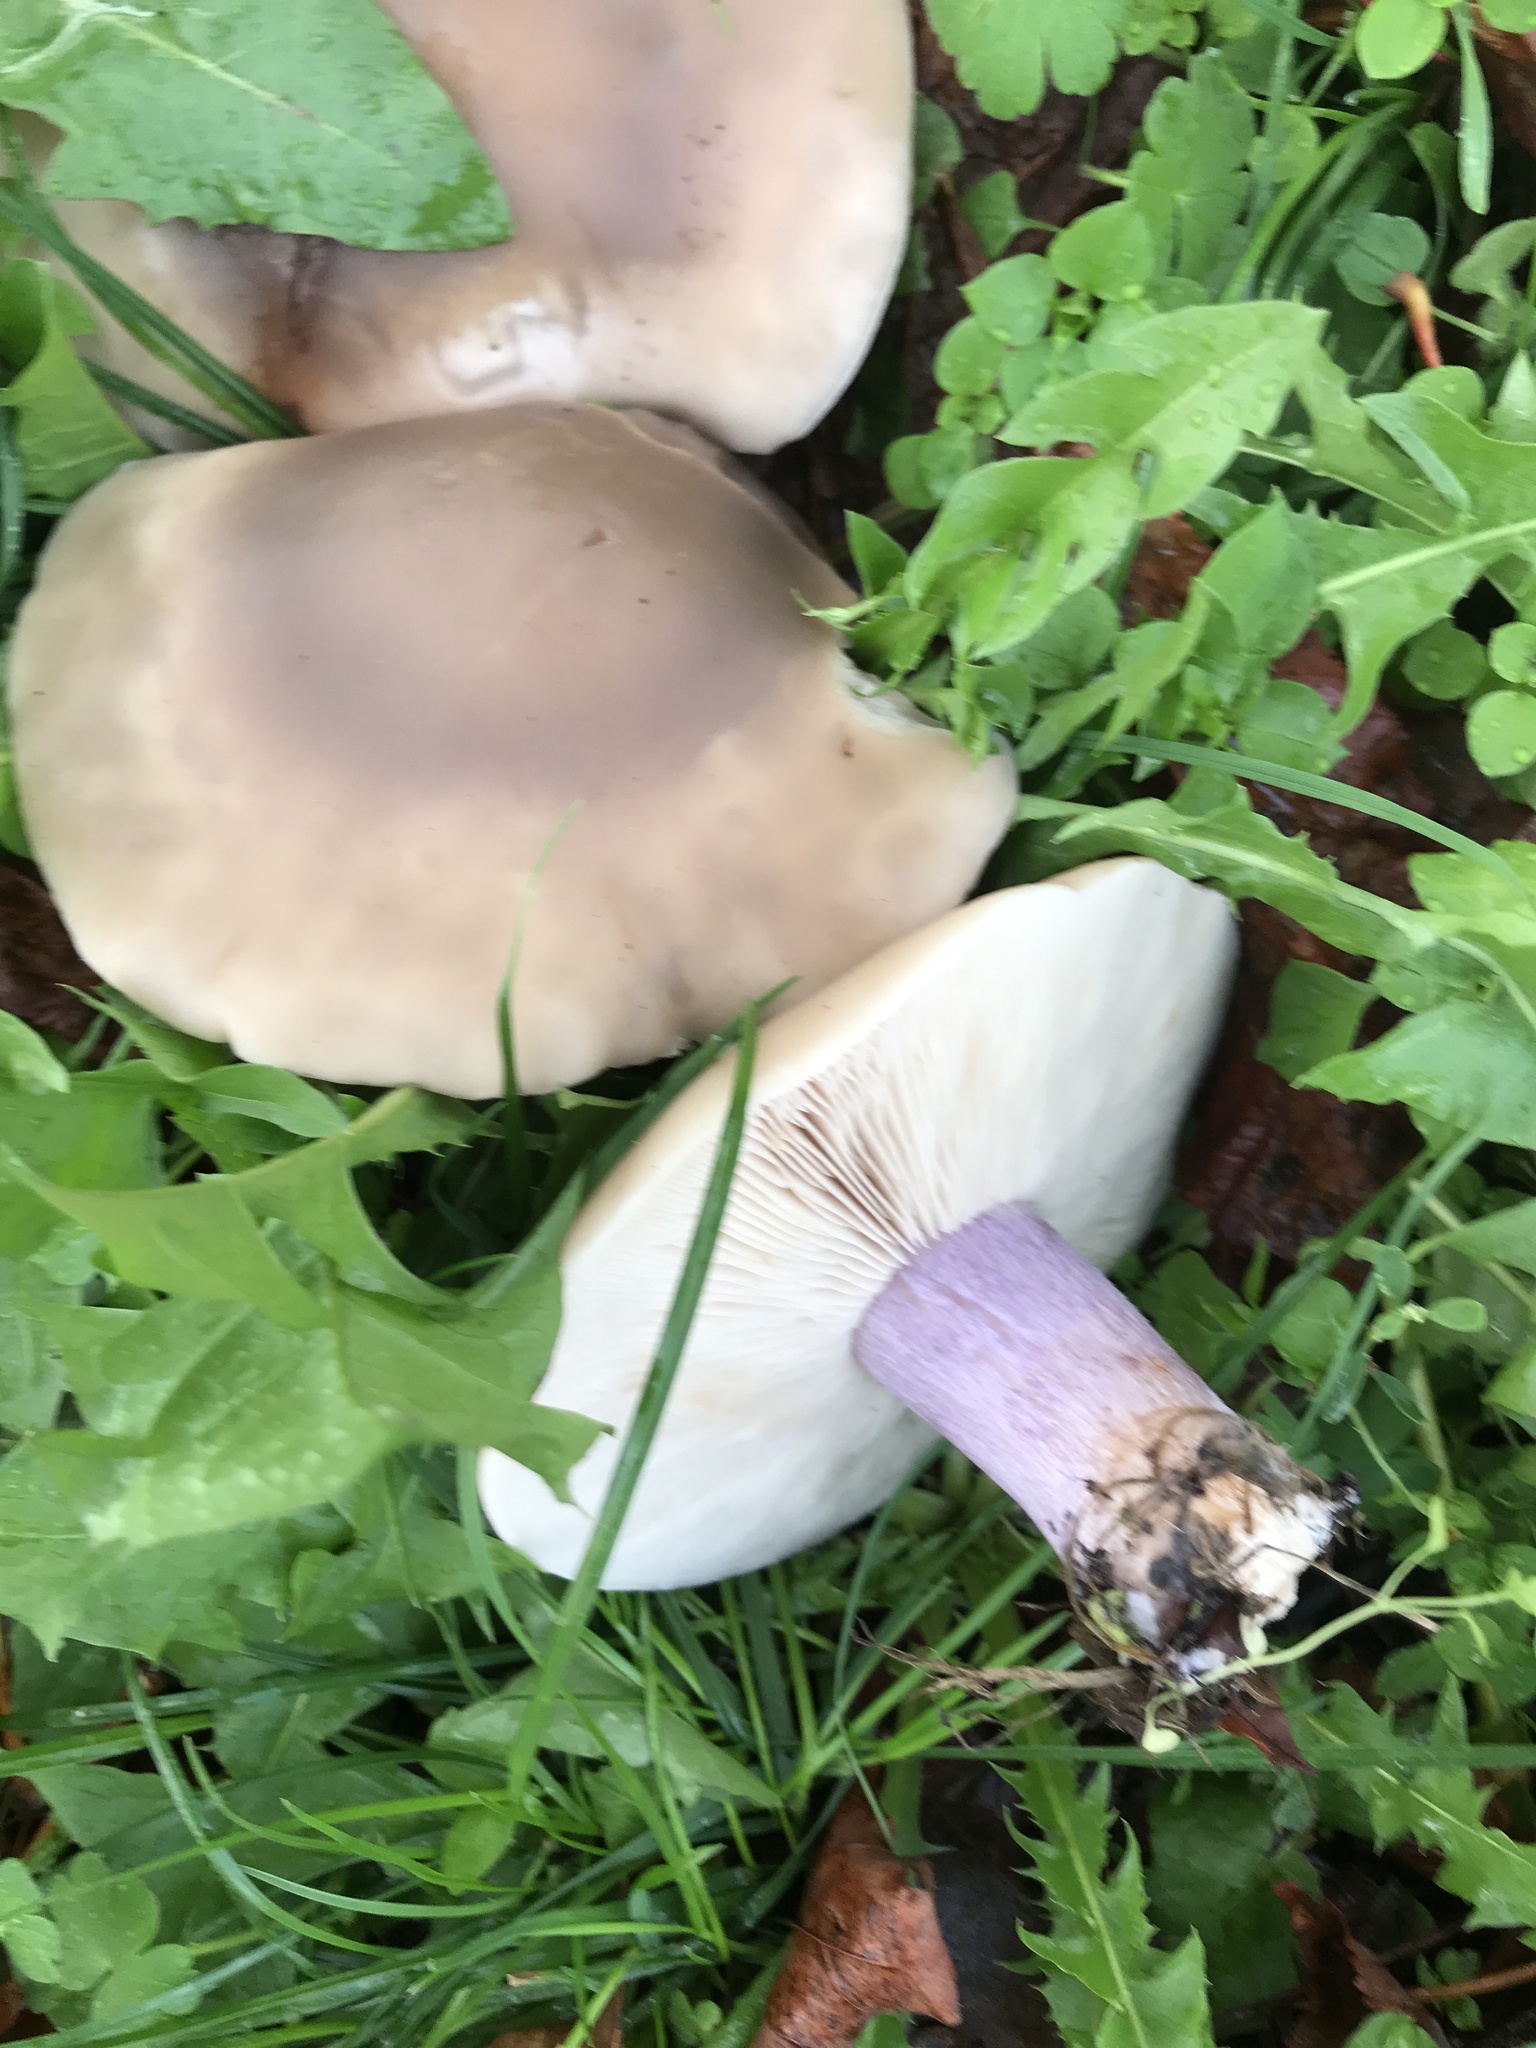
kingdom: Fungi
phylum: Basidiomycota
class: Agaricomycetes
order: Agaricales
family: Omphalotaceae
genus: Collybiopsis
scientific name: Collybiopsis peronata
